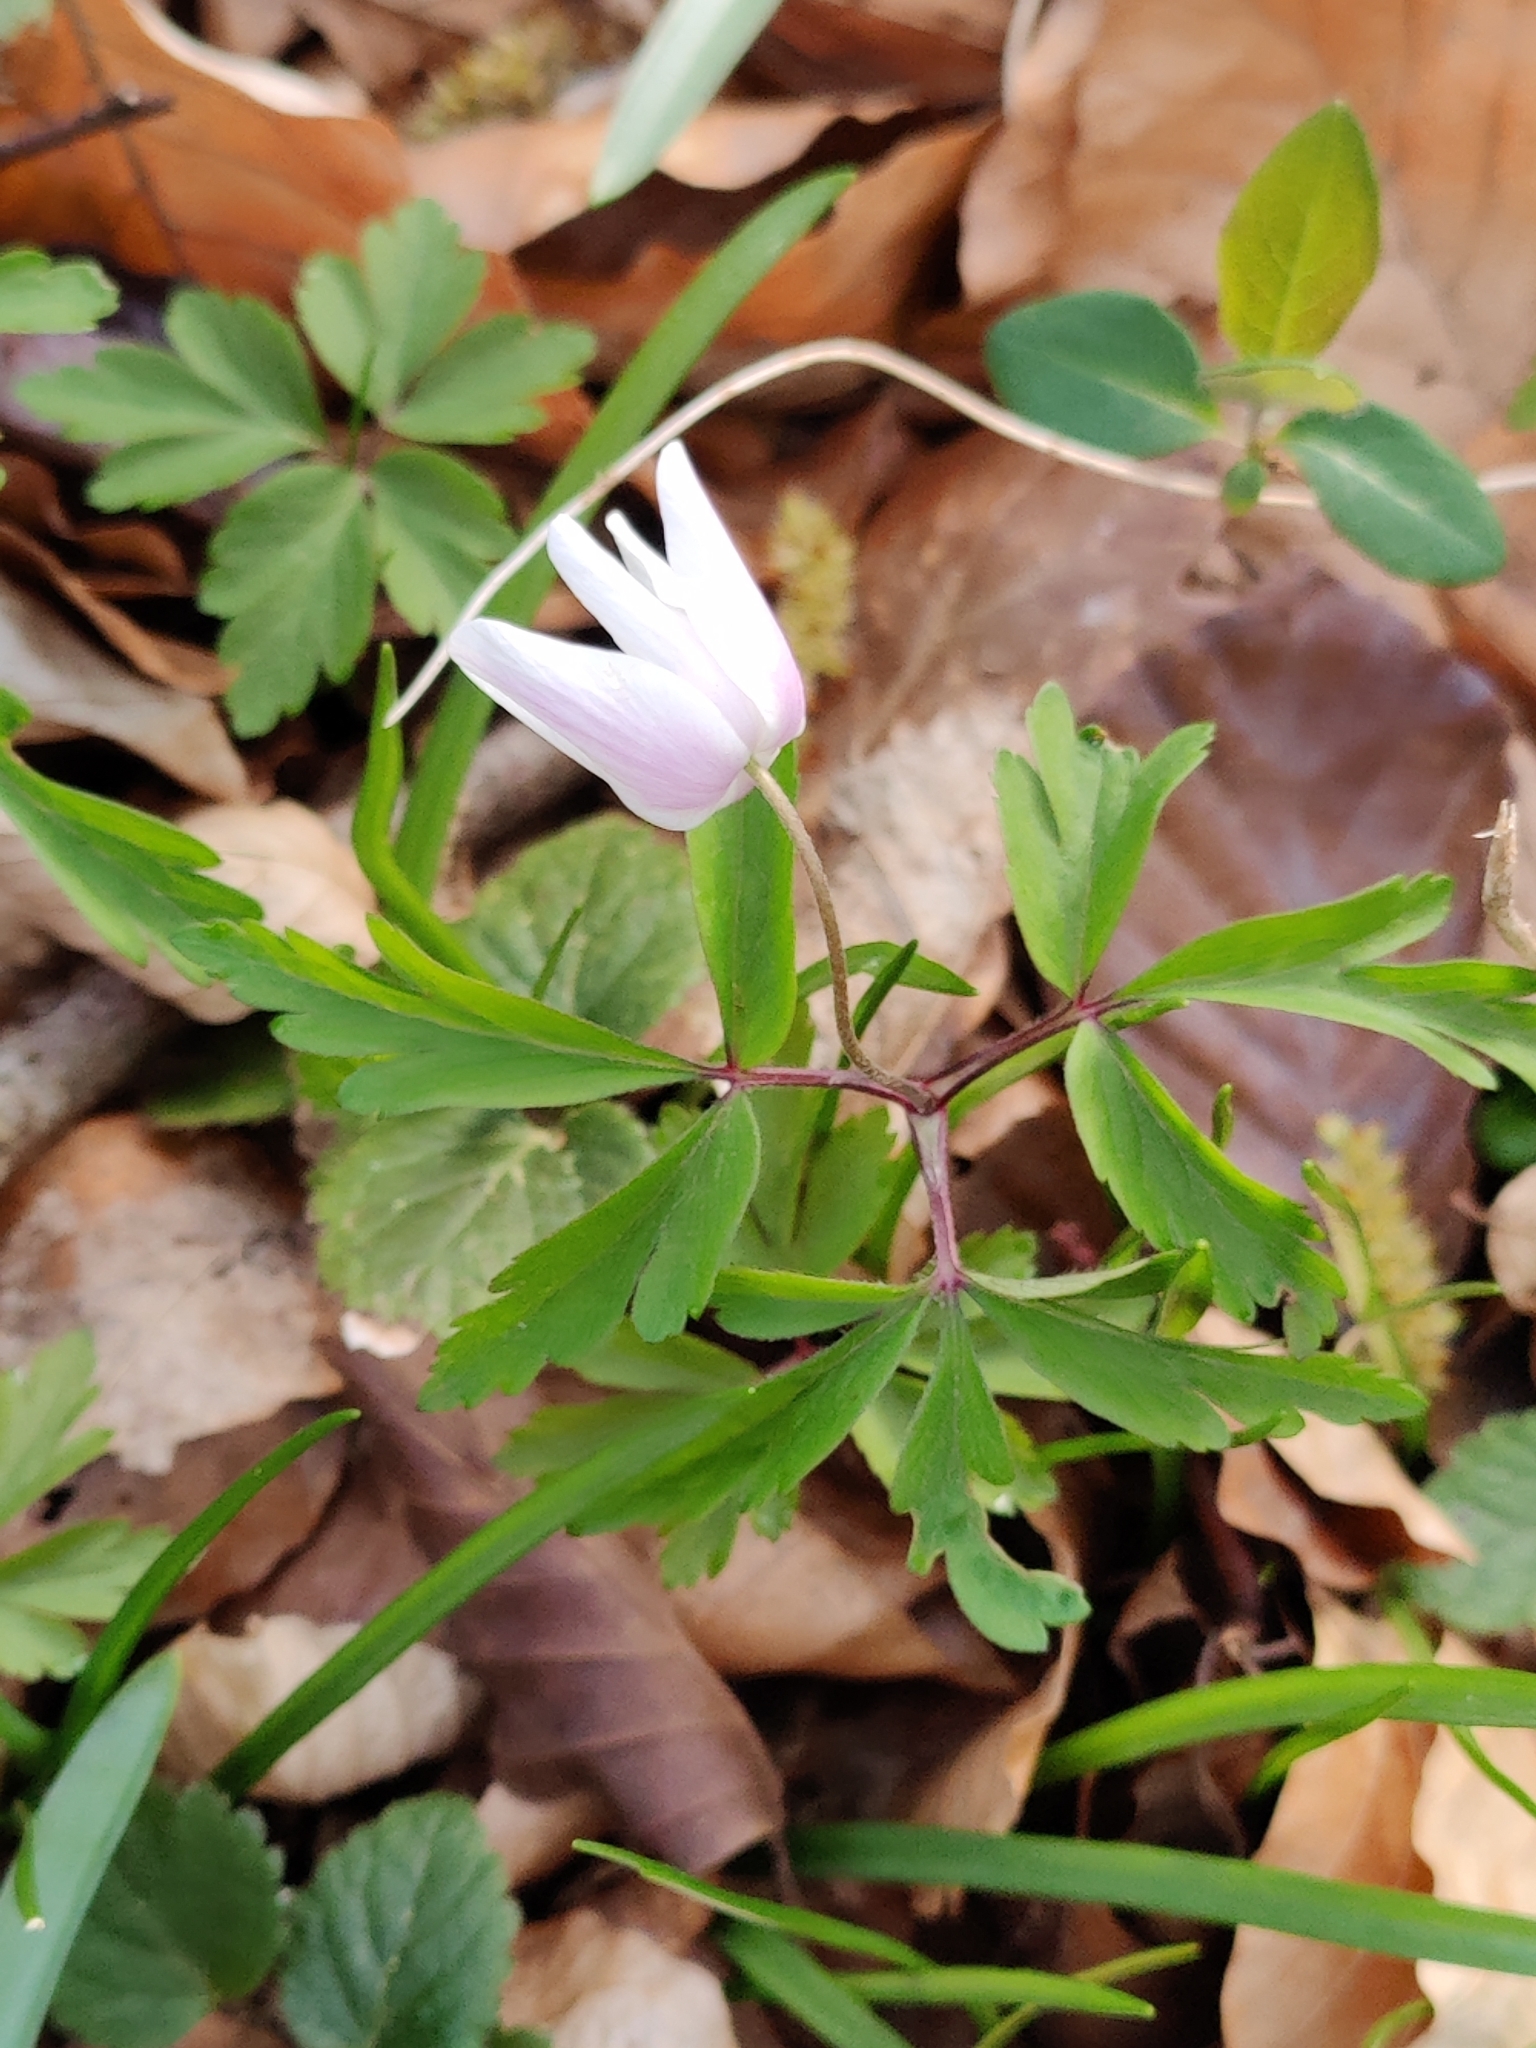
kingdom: Plantae
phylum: Tracheophyta
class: Magnoliopsida
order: Ranunculales
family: Ranunculaceae
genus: Anemone
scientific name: Anemone nemorosa
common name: Wood anemone
